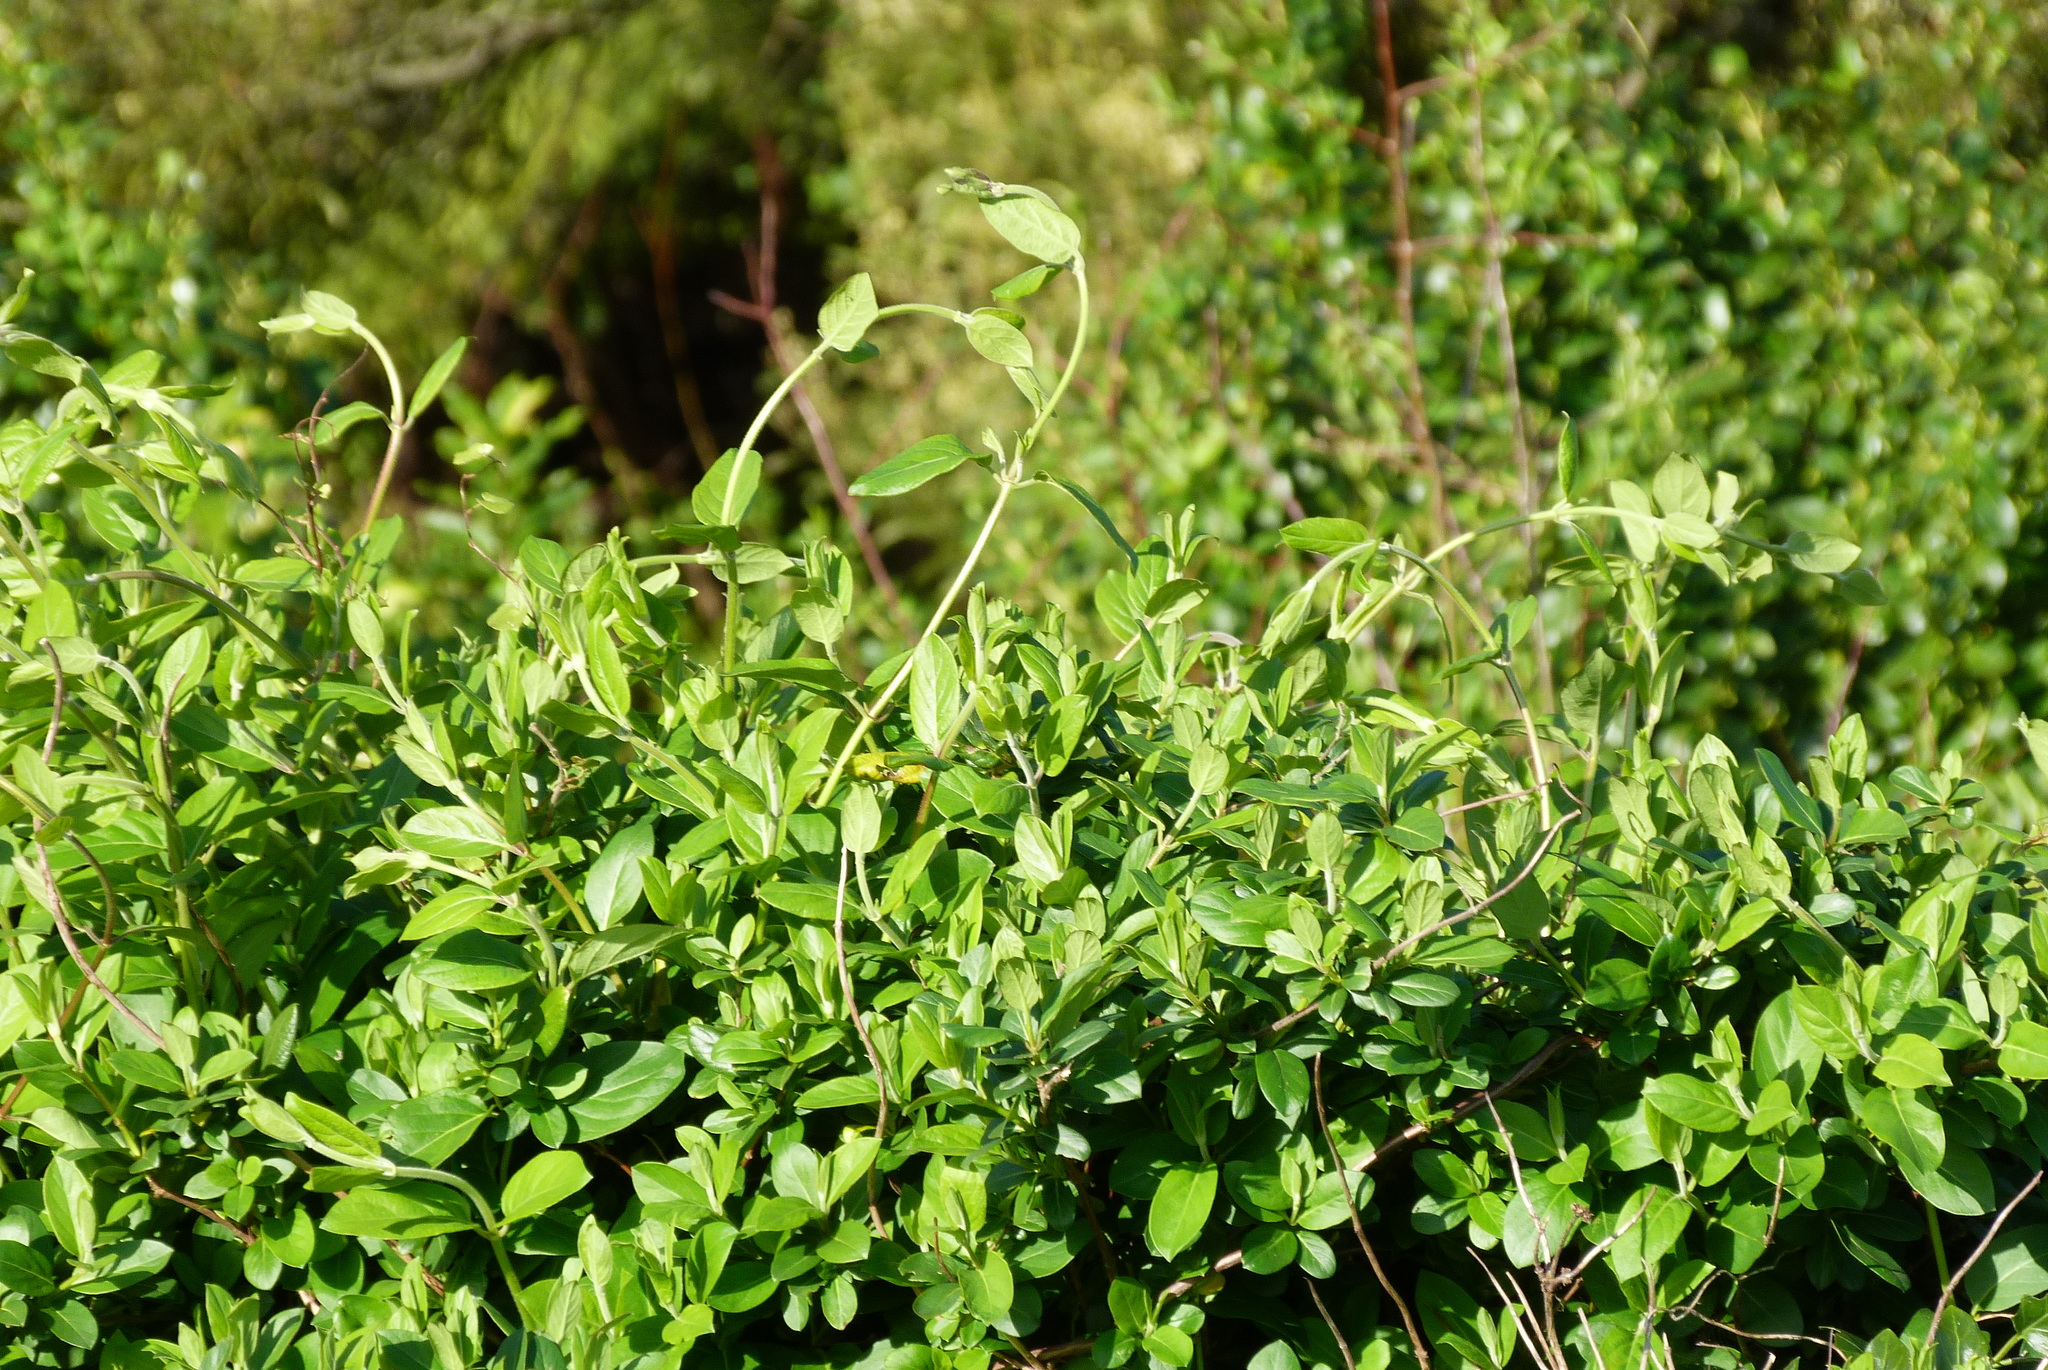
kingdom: Plantae
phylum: Tracheophyta
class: Magnoliopsida
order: Dipsacales
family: Caprifoliaceae
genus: Lonicera
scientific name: Lonicera japonica
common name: Japanese honeysuckle
